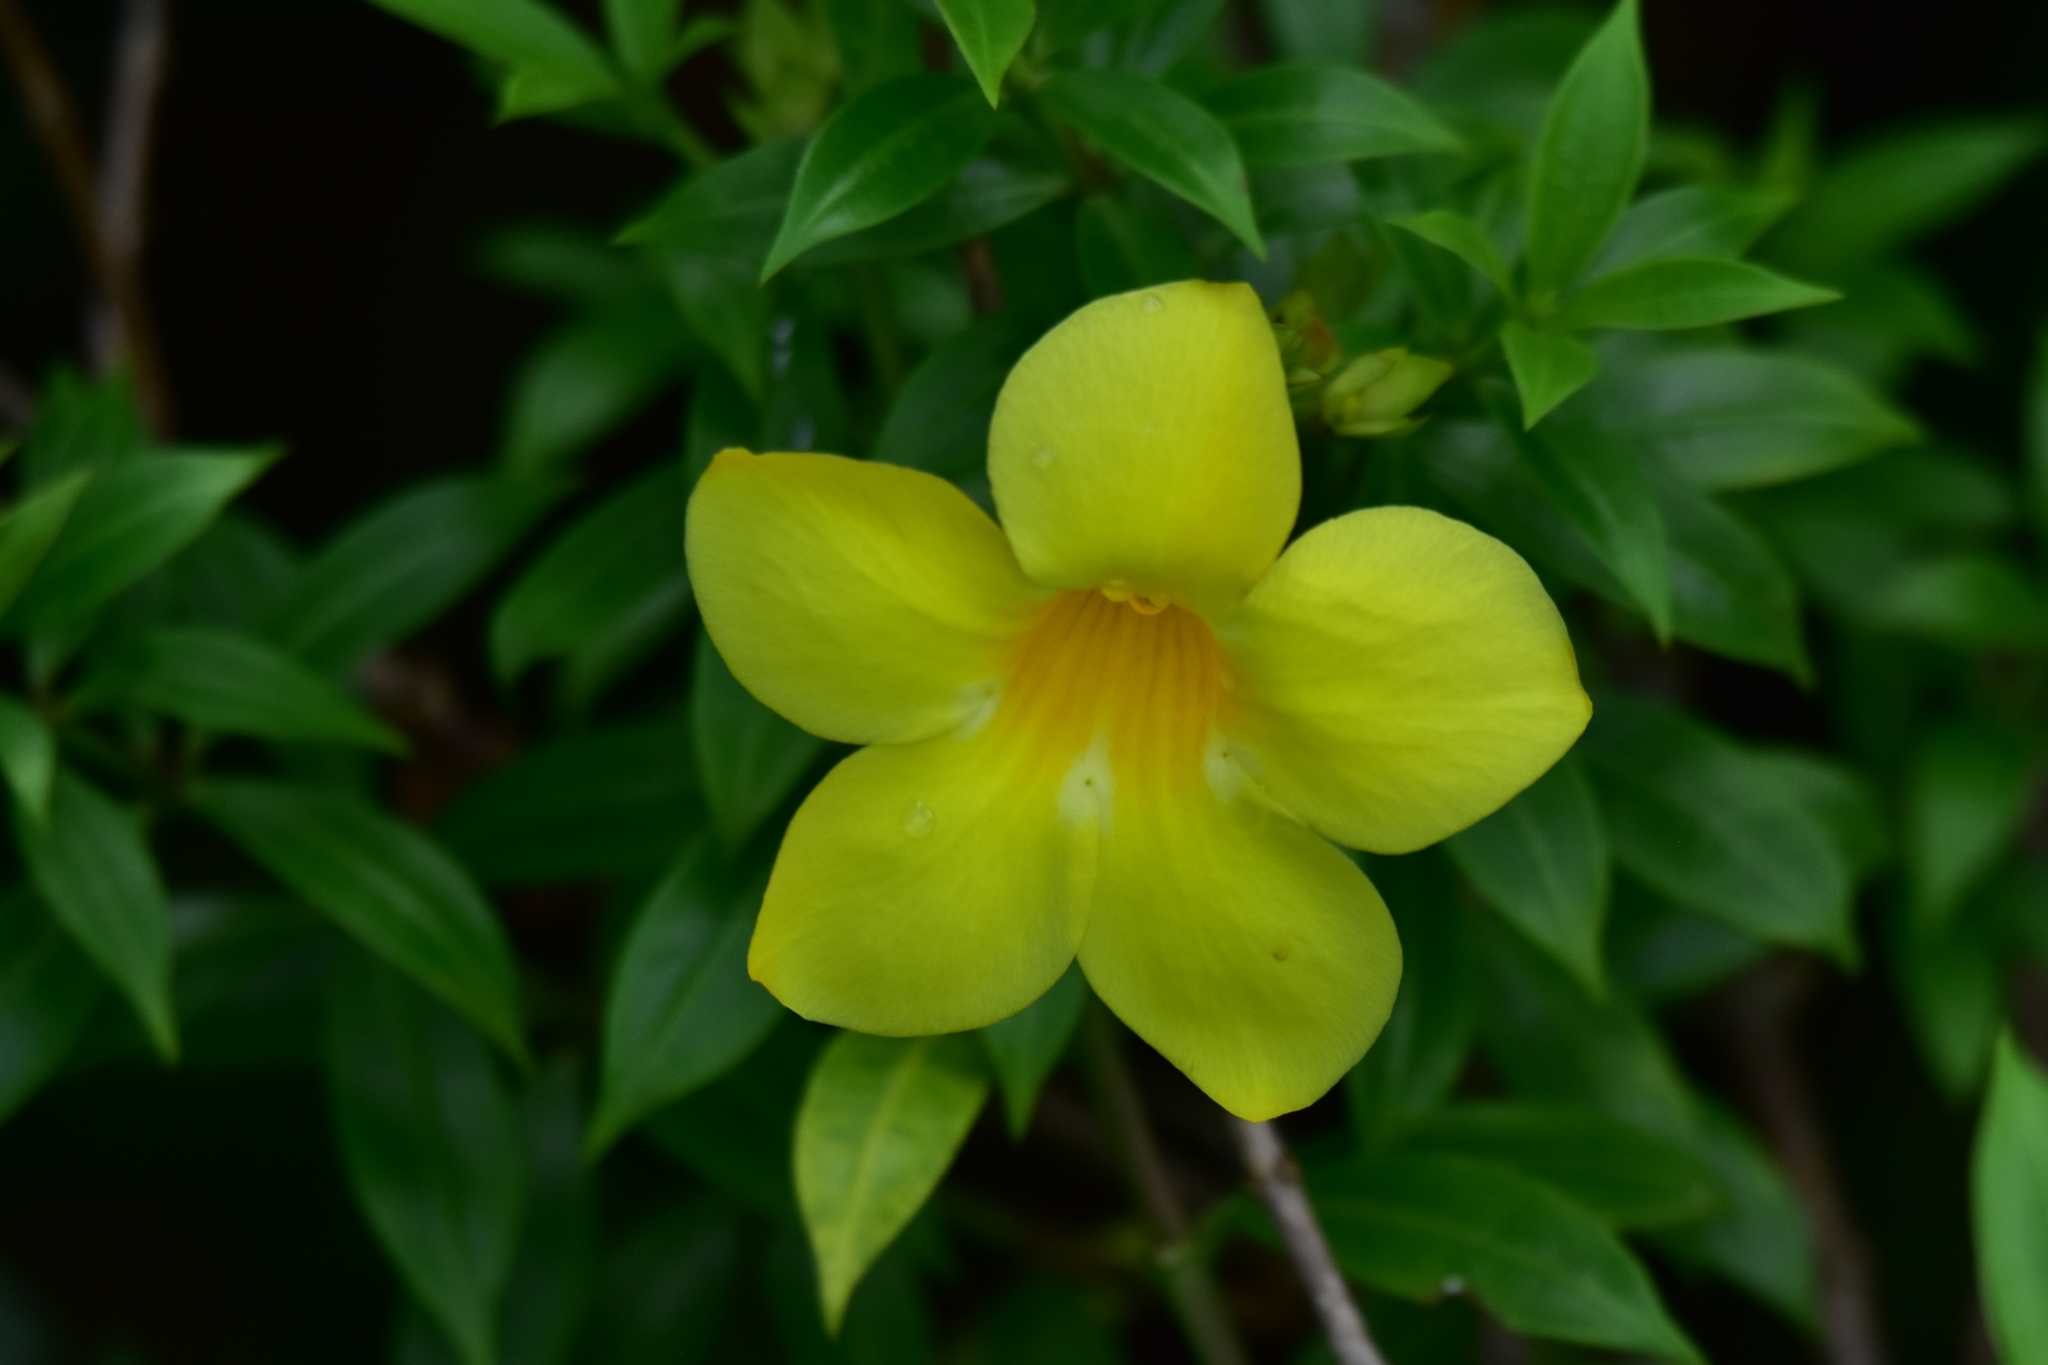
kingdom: Plantae
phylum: Tracheophyta
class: Magnoliopsida
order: Gentianales
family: Apocynaceae
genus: Allamanda
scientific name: Allamanda cathartica
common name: Golden trumpet
